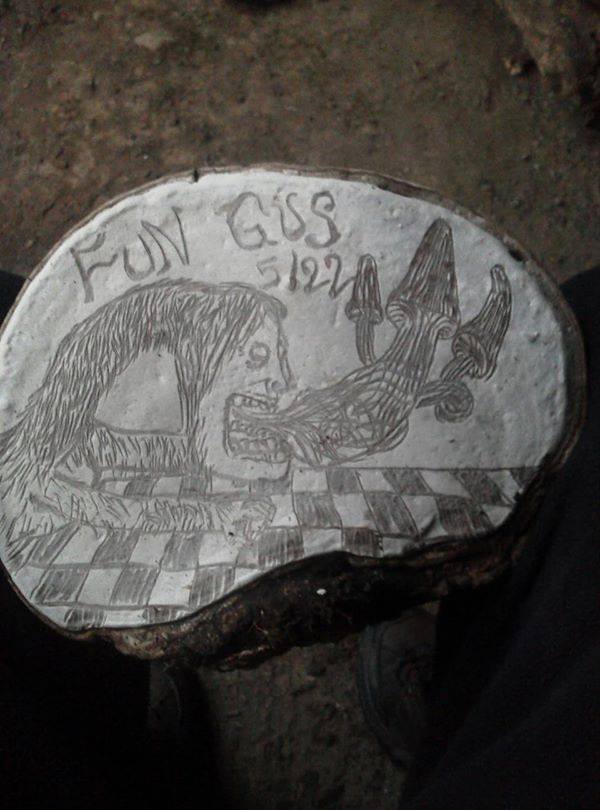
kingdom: Fungi
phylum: Basidiomycota
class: Agaricomycetes
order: Polyporales
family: Polyporaceae
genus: Ganoderma
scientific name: Ganoderma applanatum
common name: Artist's bracket
